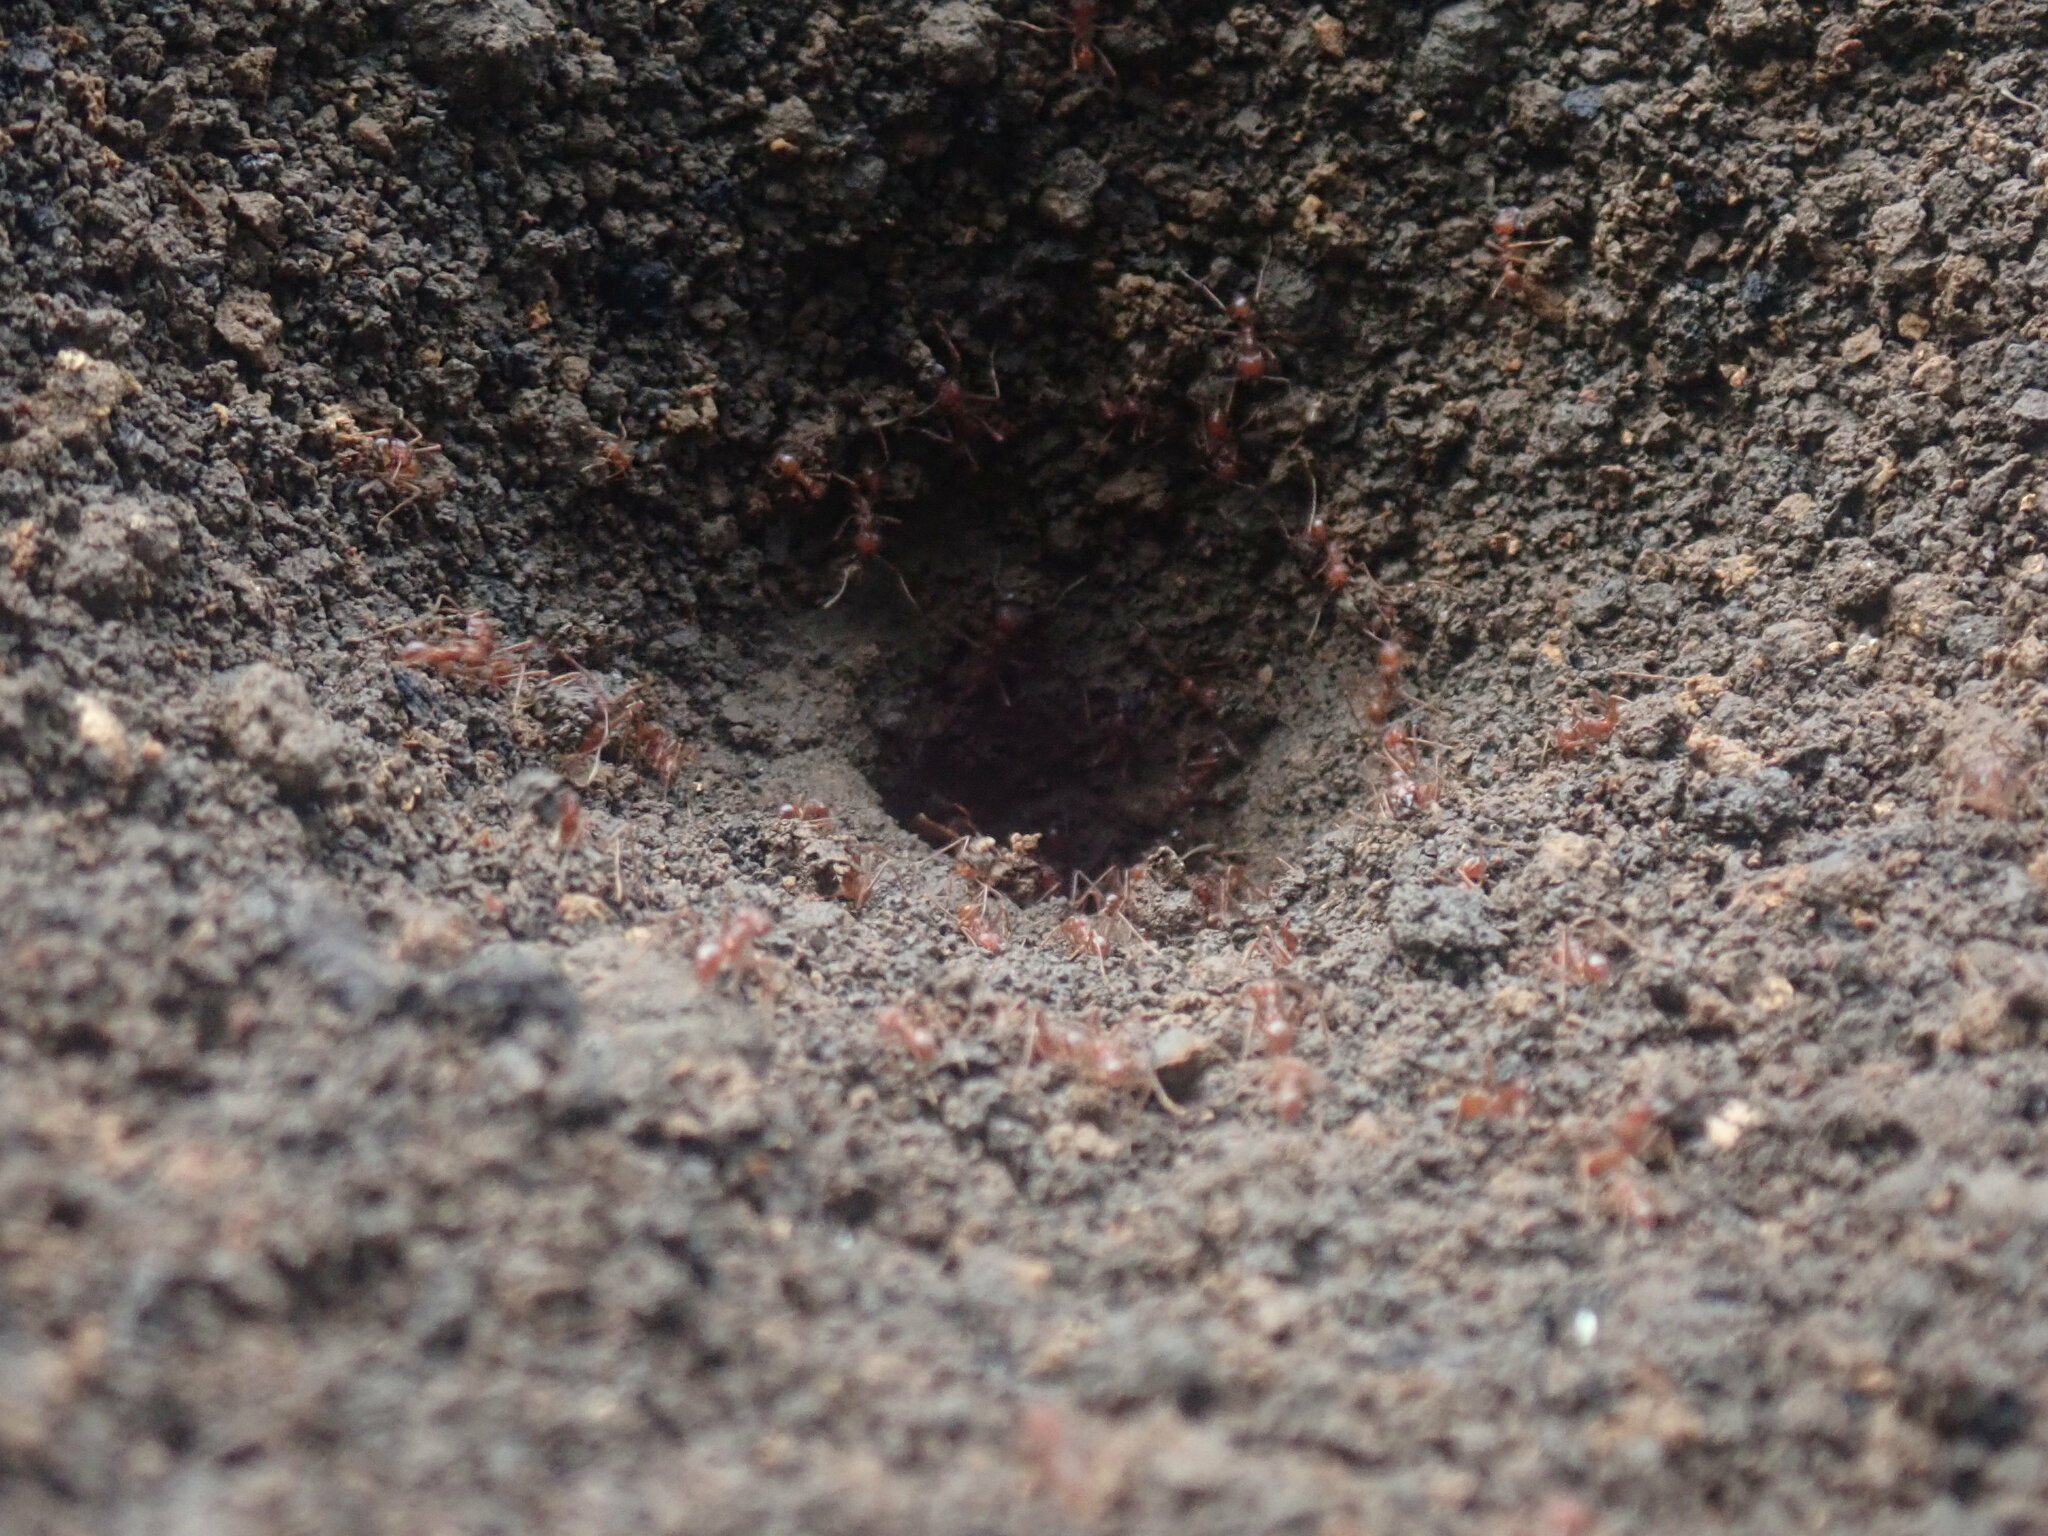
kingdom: Animalia
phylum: Arthropoda
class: Insecta
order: Hymenoptera
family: Formicidae
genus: Atta
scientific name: Atta mexicana
